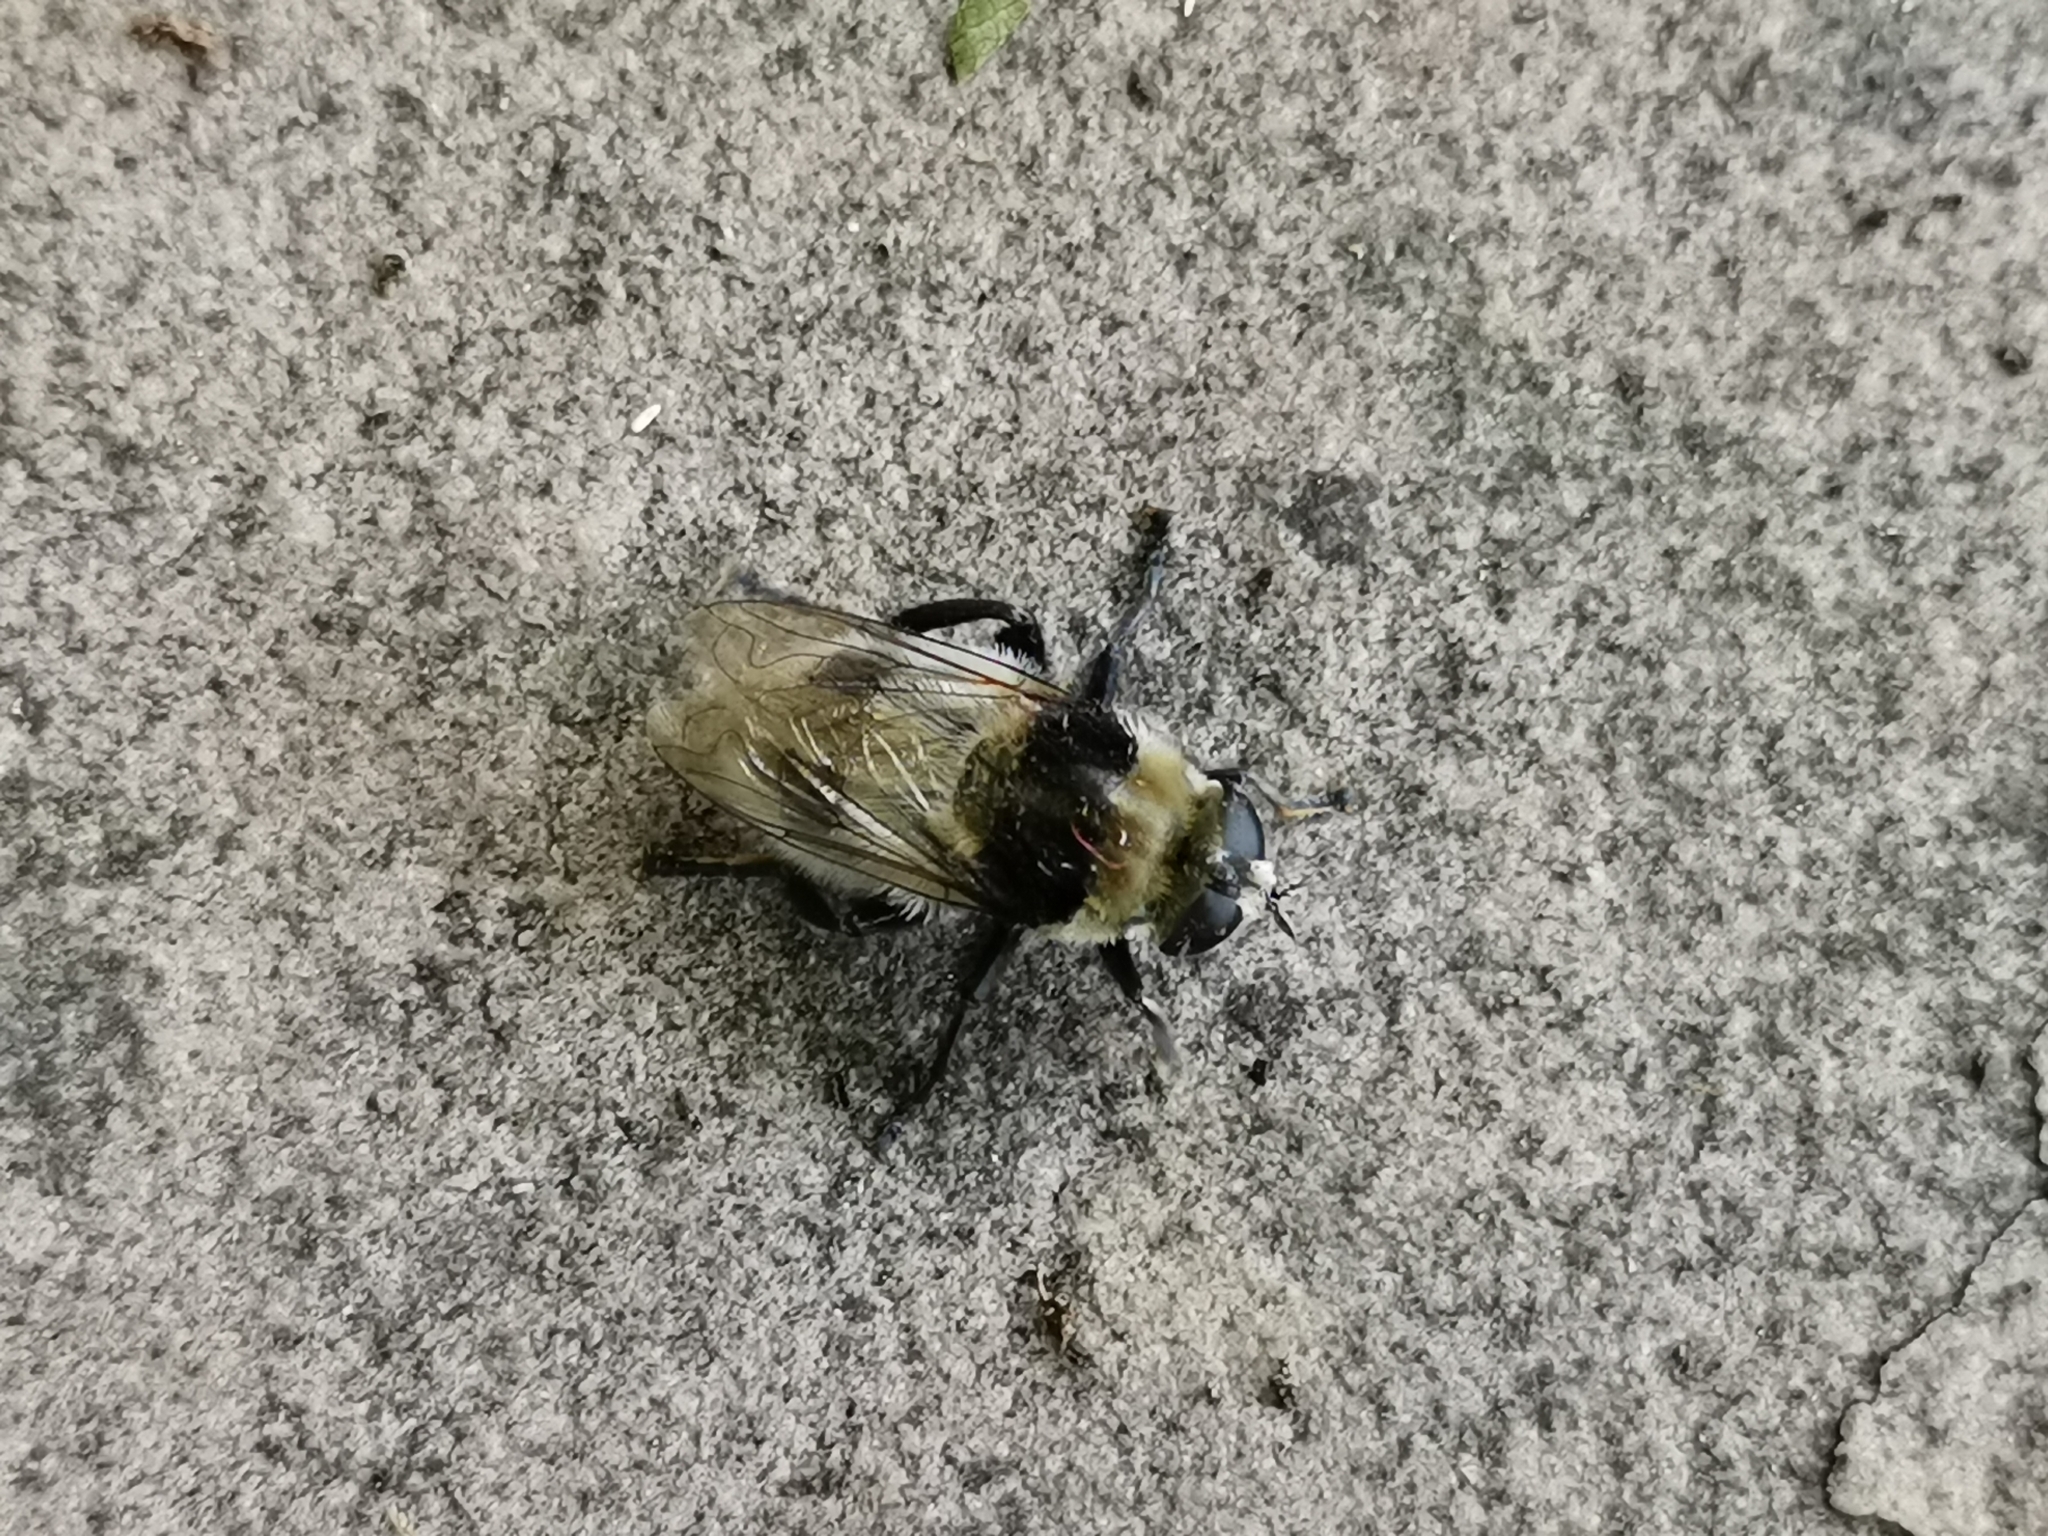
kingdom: Animalia
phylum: Arthropoda
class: Insecta
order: Diptera
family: Syrphidae
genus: Merodon
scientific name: Merodon equestris
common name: Greater bulb-fly
